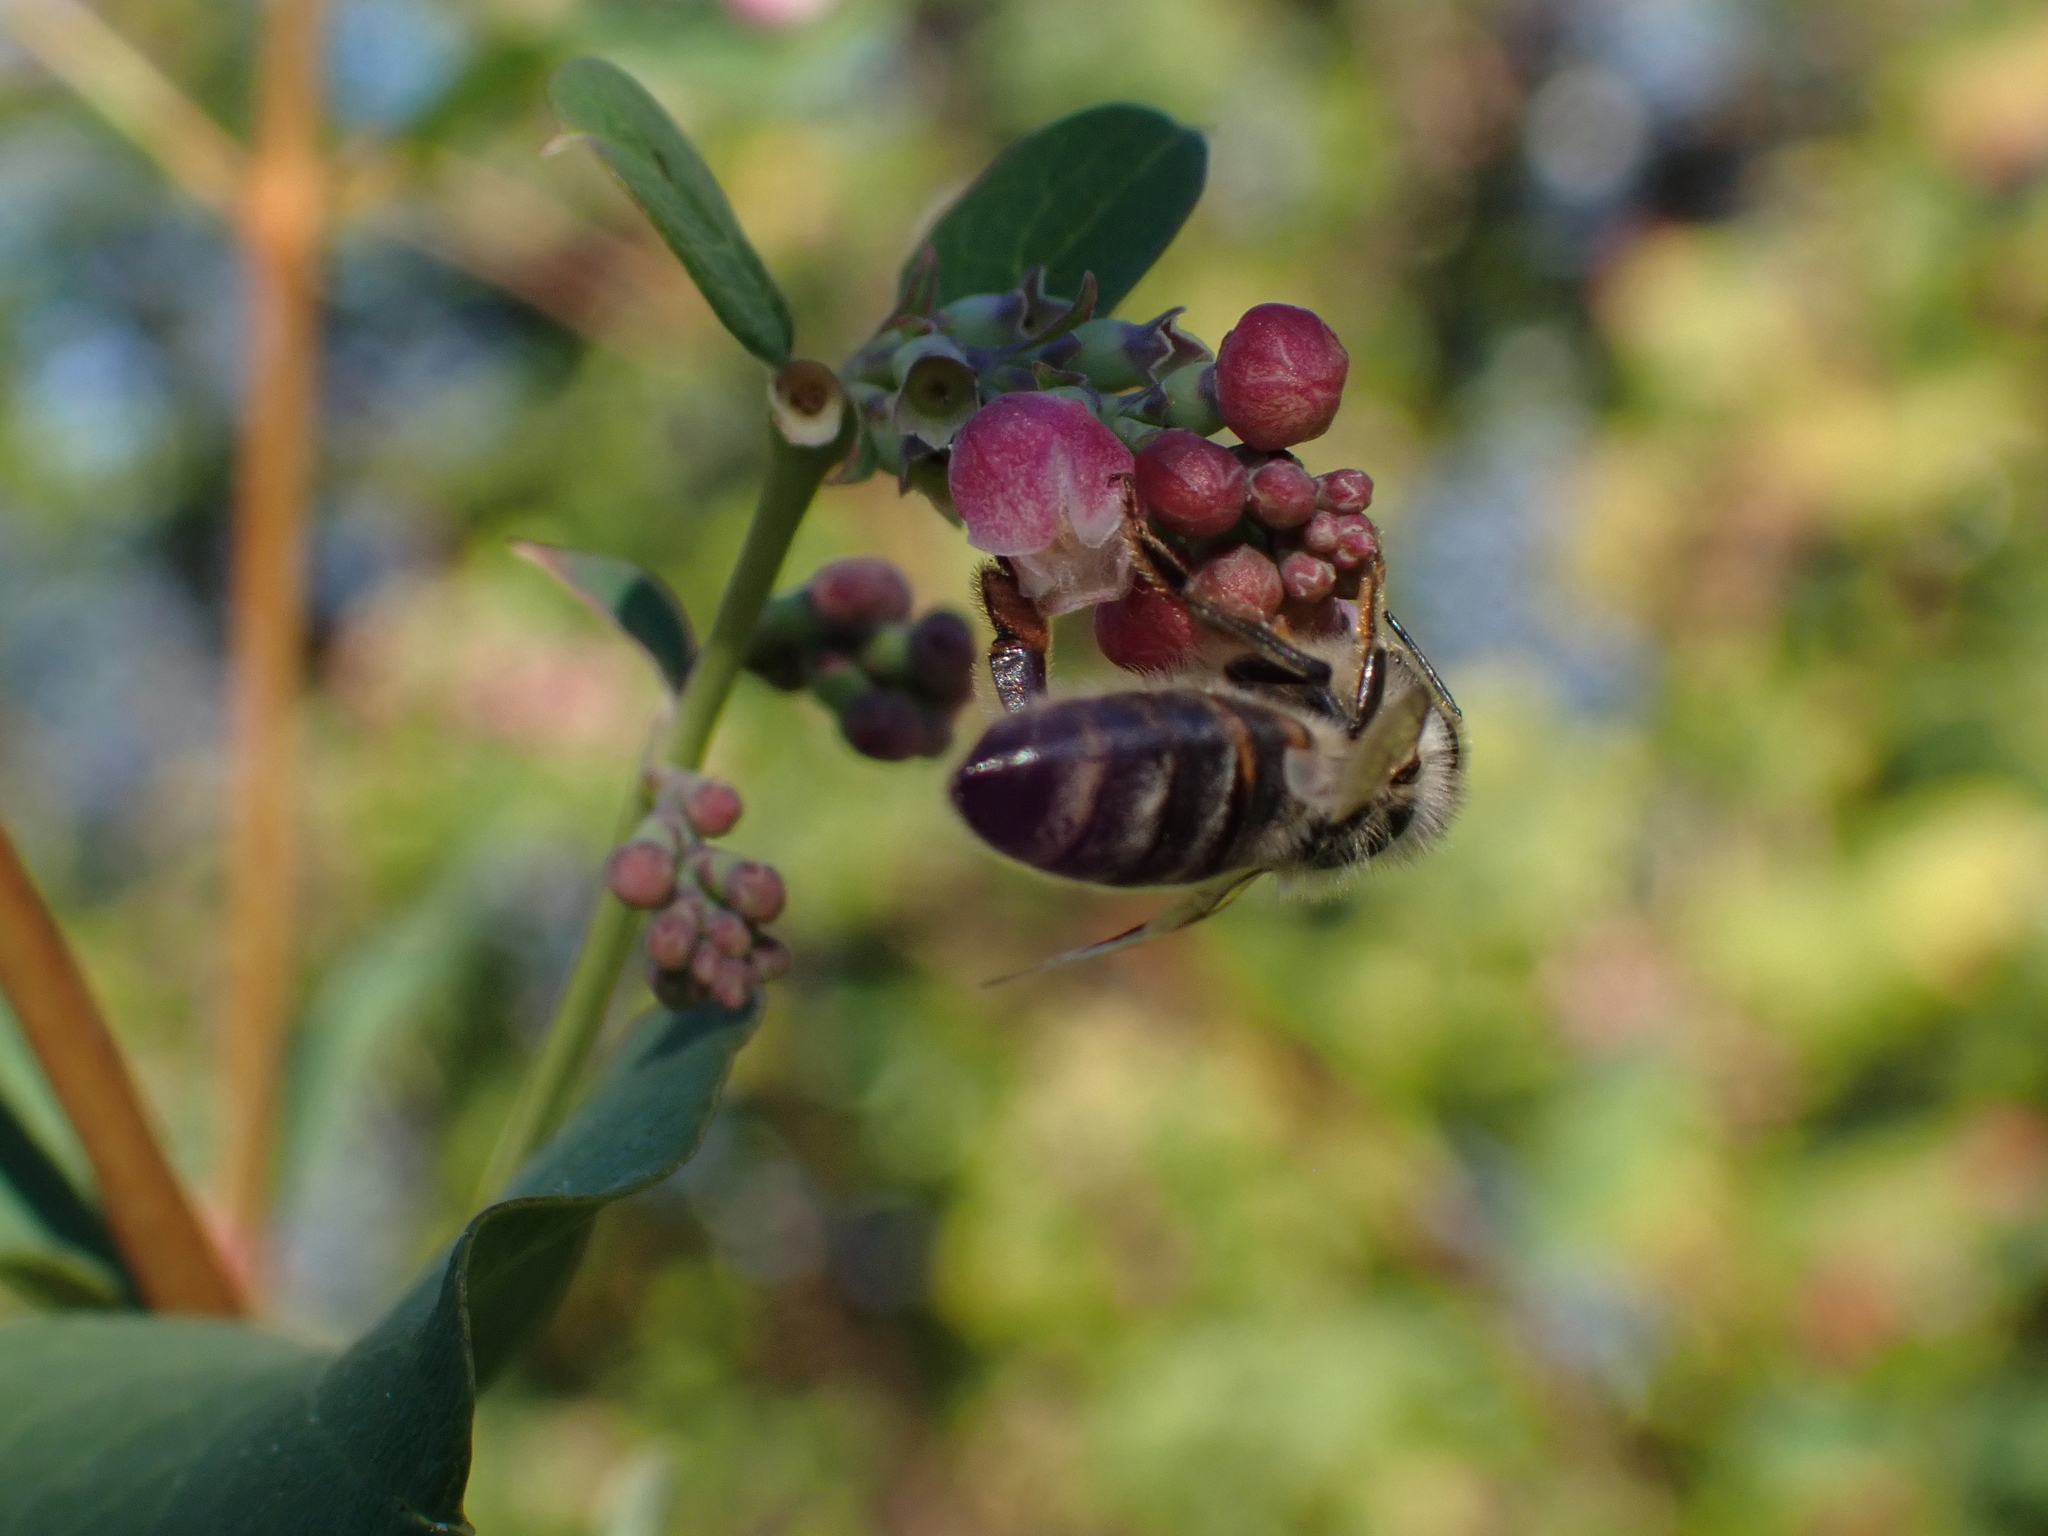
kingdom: Animalia
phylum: Arthropoda
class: Insecta
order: Hymenoptera
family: Apidae
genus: Apis
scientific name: Apis mellifera
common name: Honey bee
